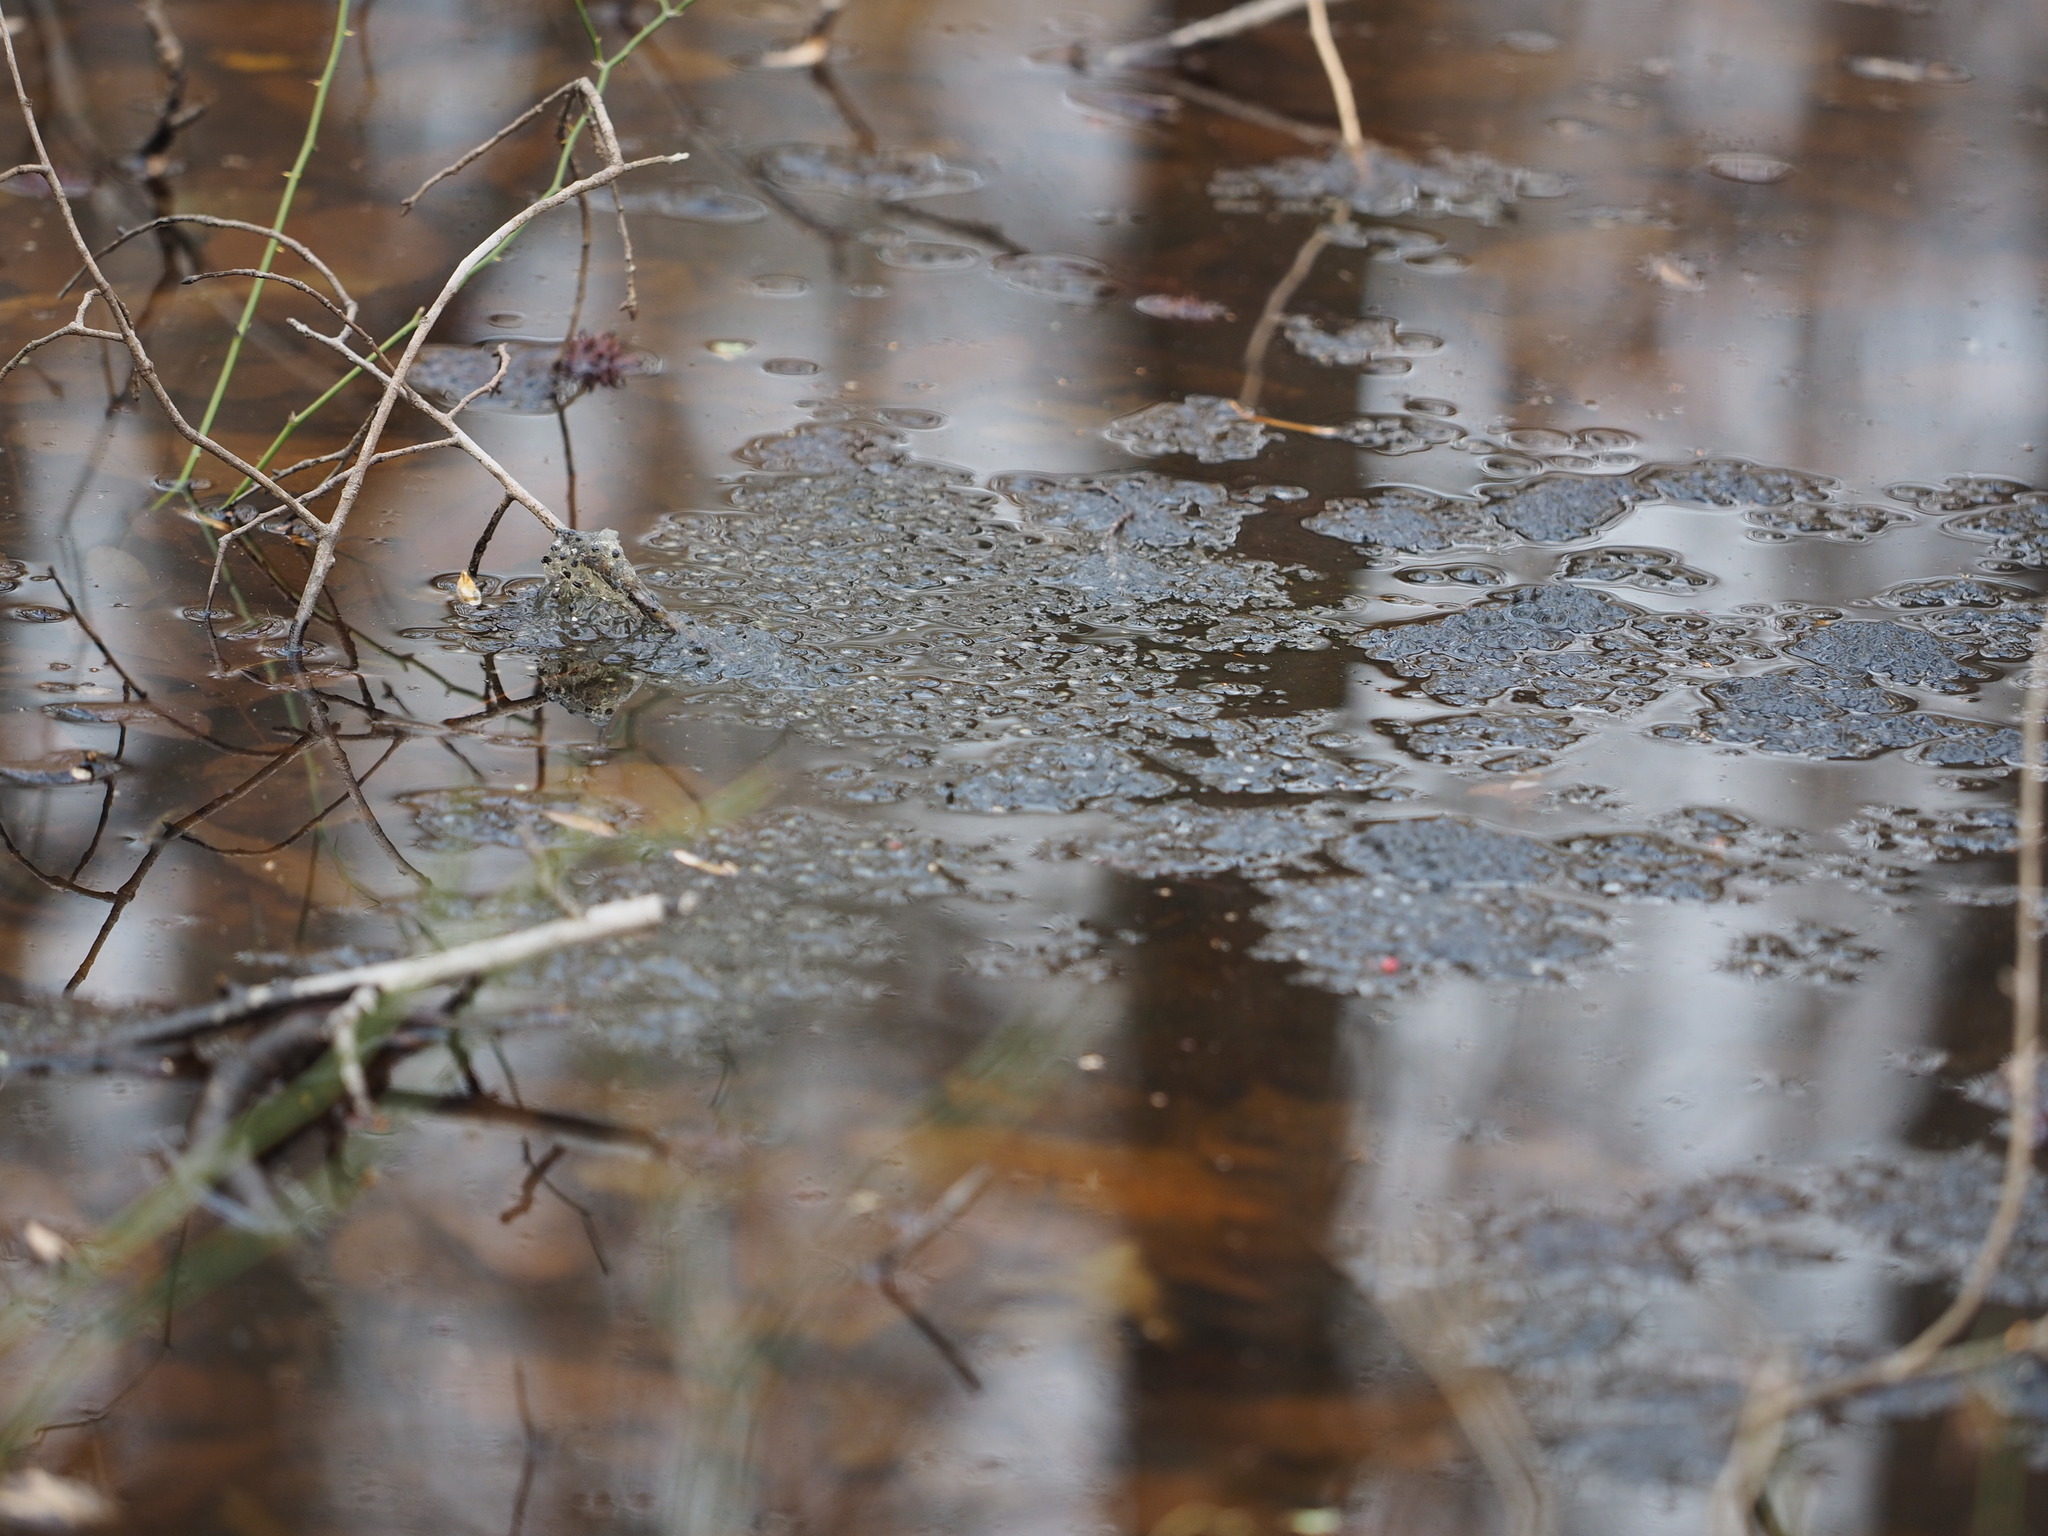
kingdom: Animalia
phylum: Chordata
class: Amphibia
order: Anura
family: Ranidae
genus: Lithobates
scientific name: Lithobates sylvaticus
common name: Wood frog
